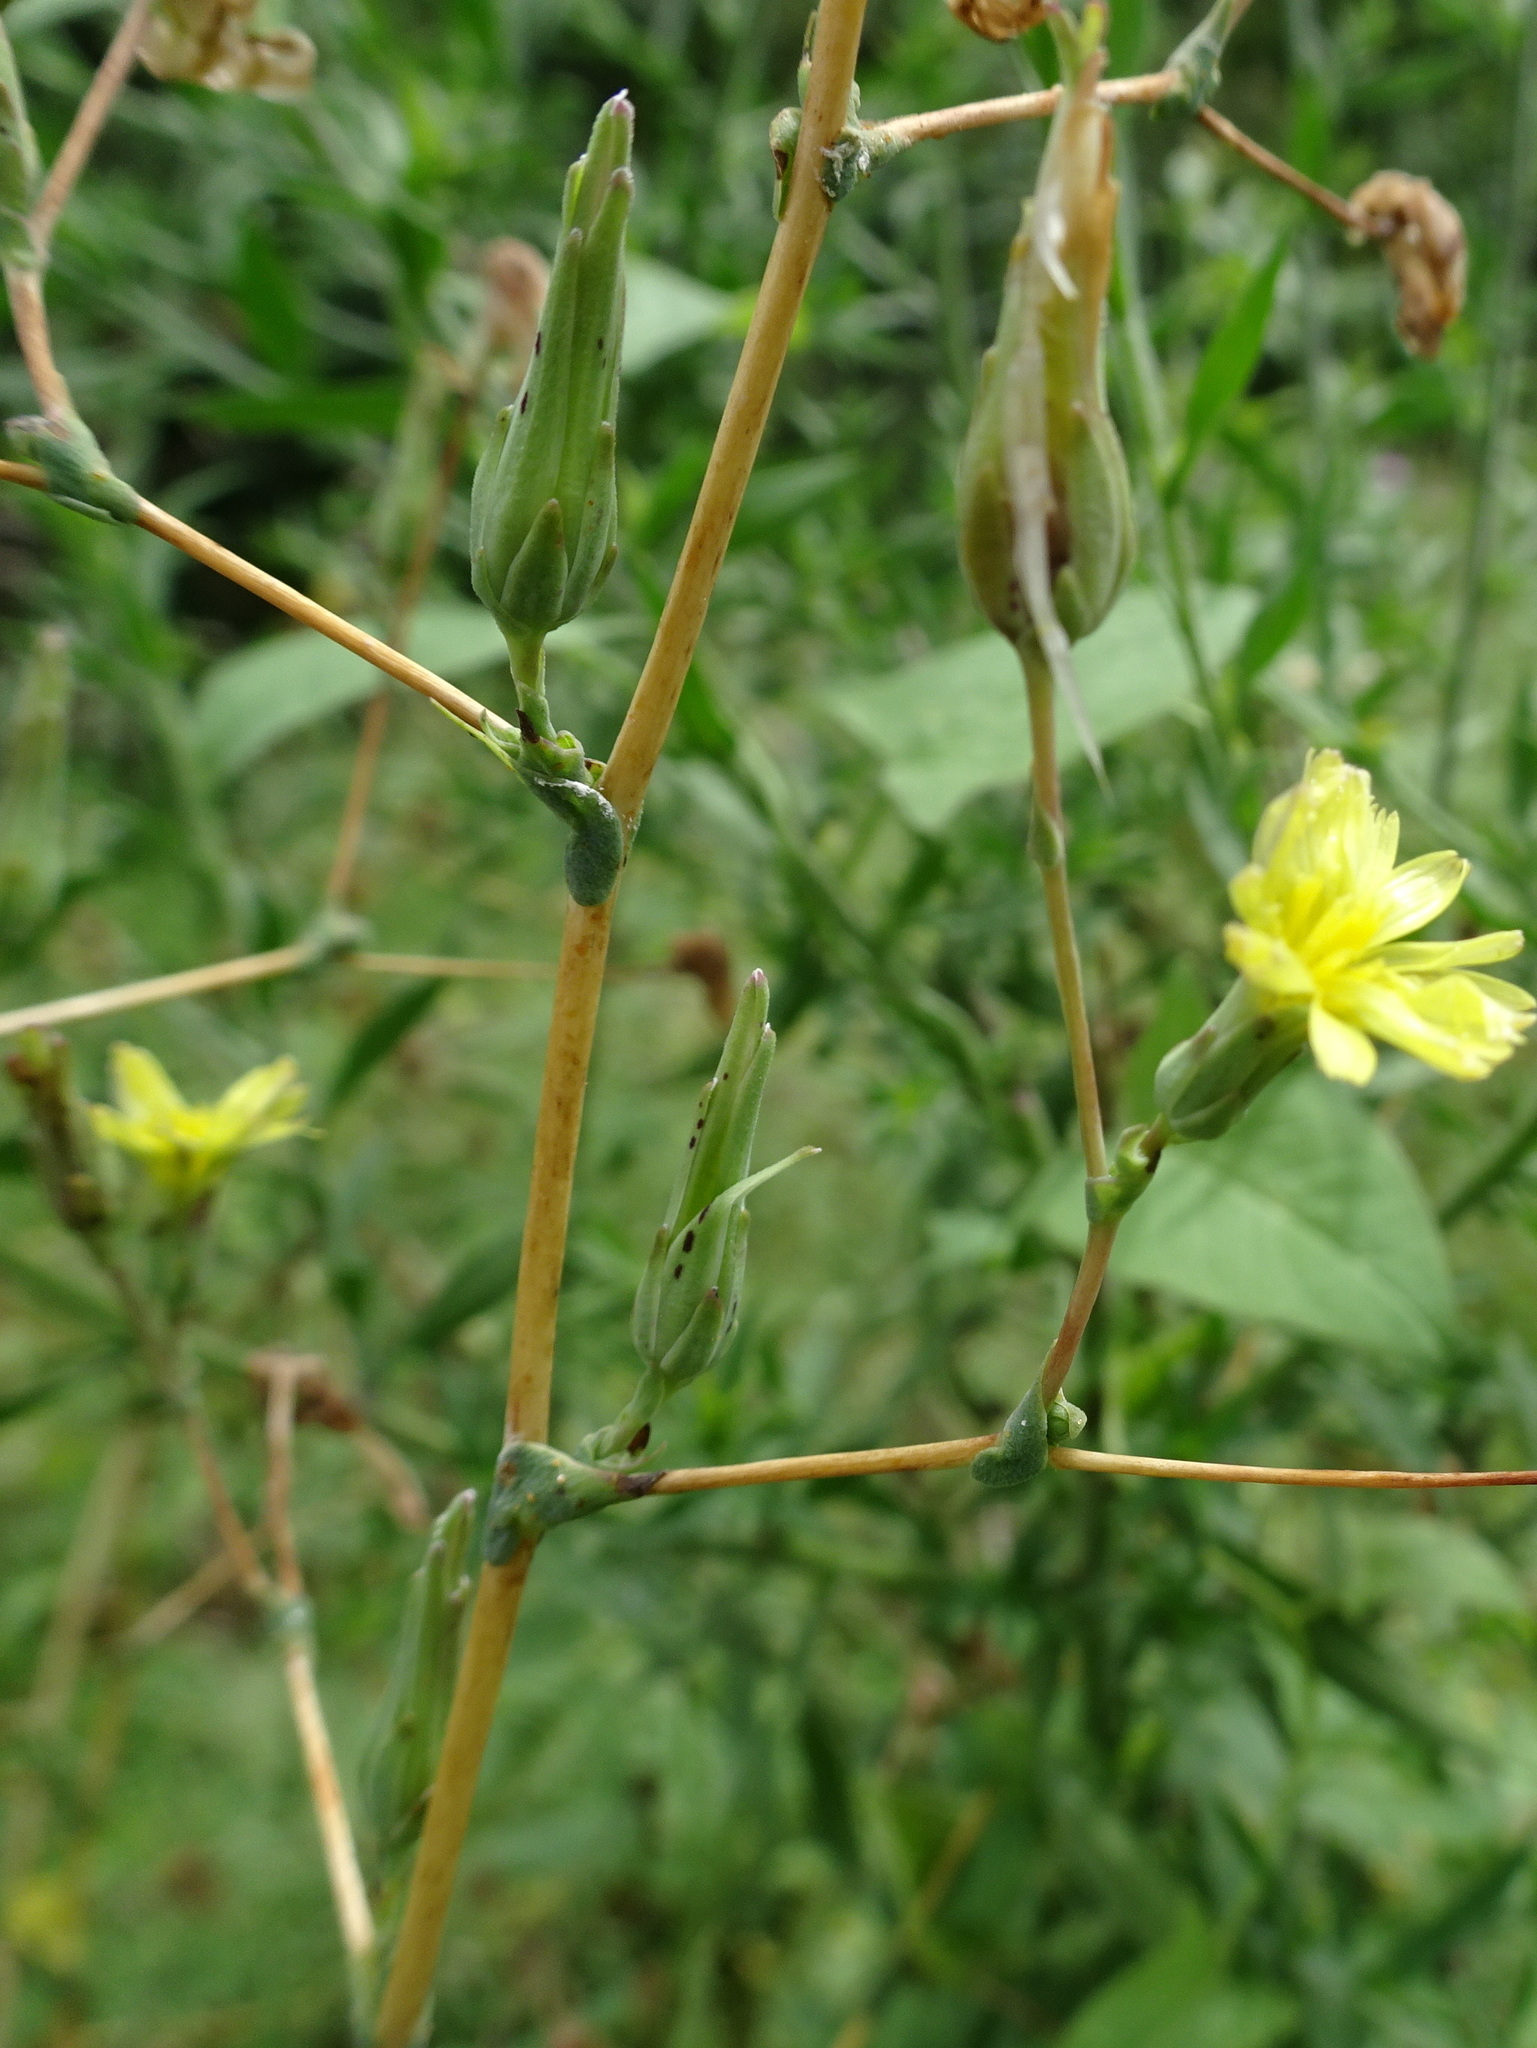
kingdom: Plantae
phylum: Tracheophyta
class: Magnoliopsida
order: Asterales
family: Asteraceae
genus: Lactuca
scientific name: Lactuca serriola
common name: Prickly lettuce
